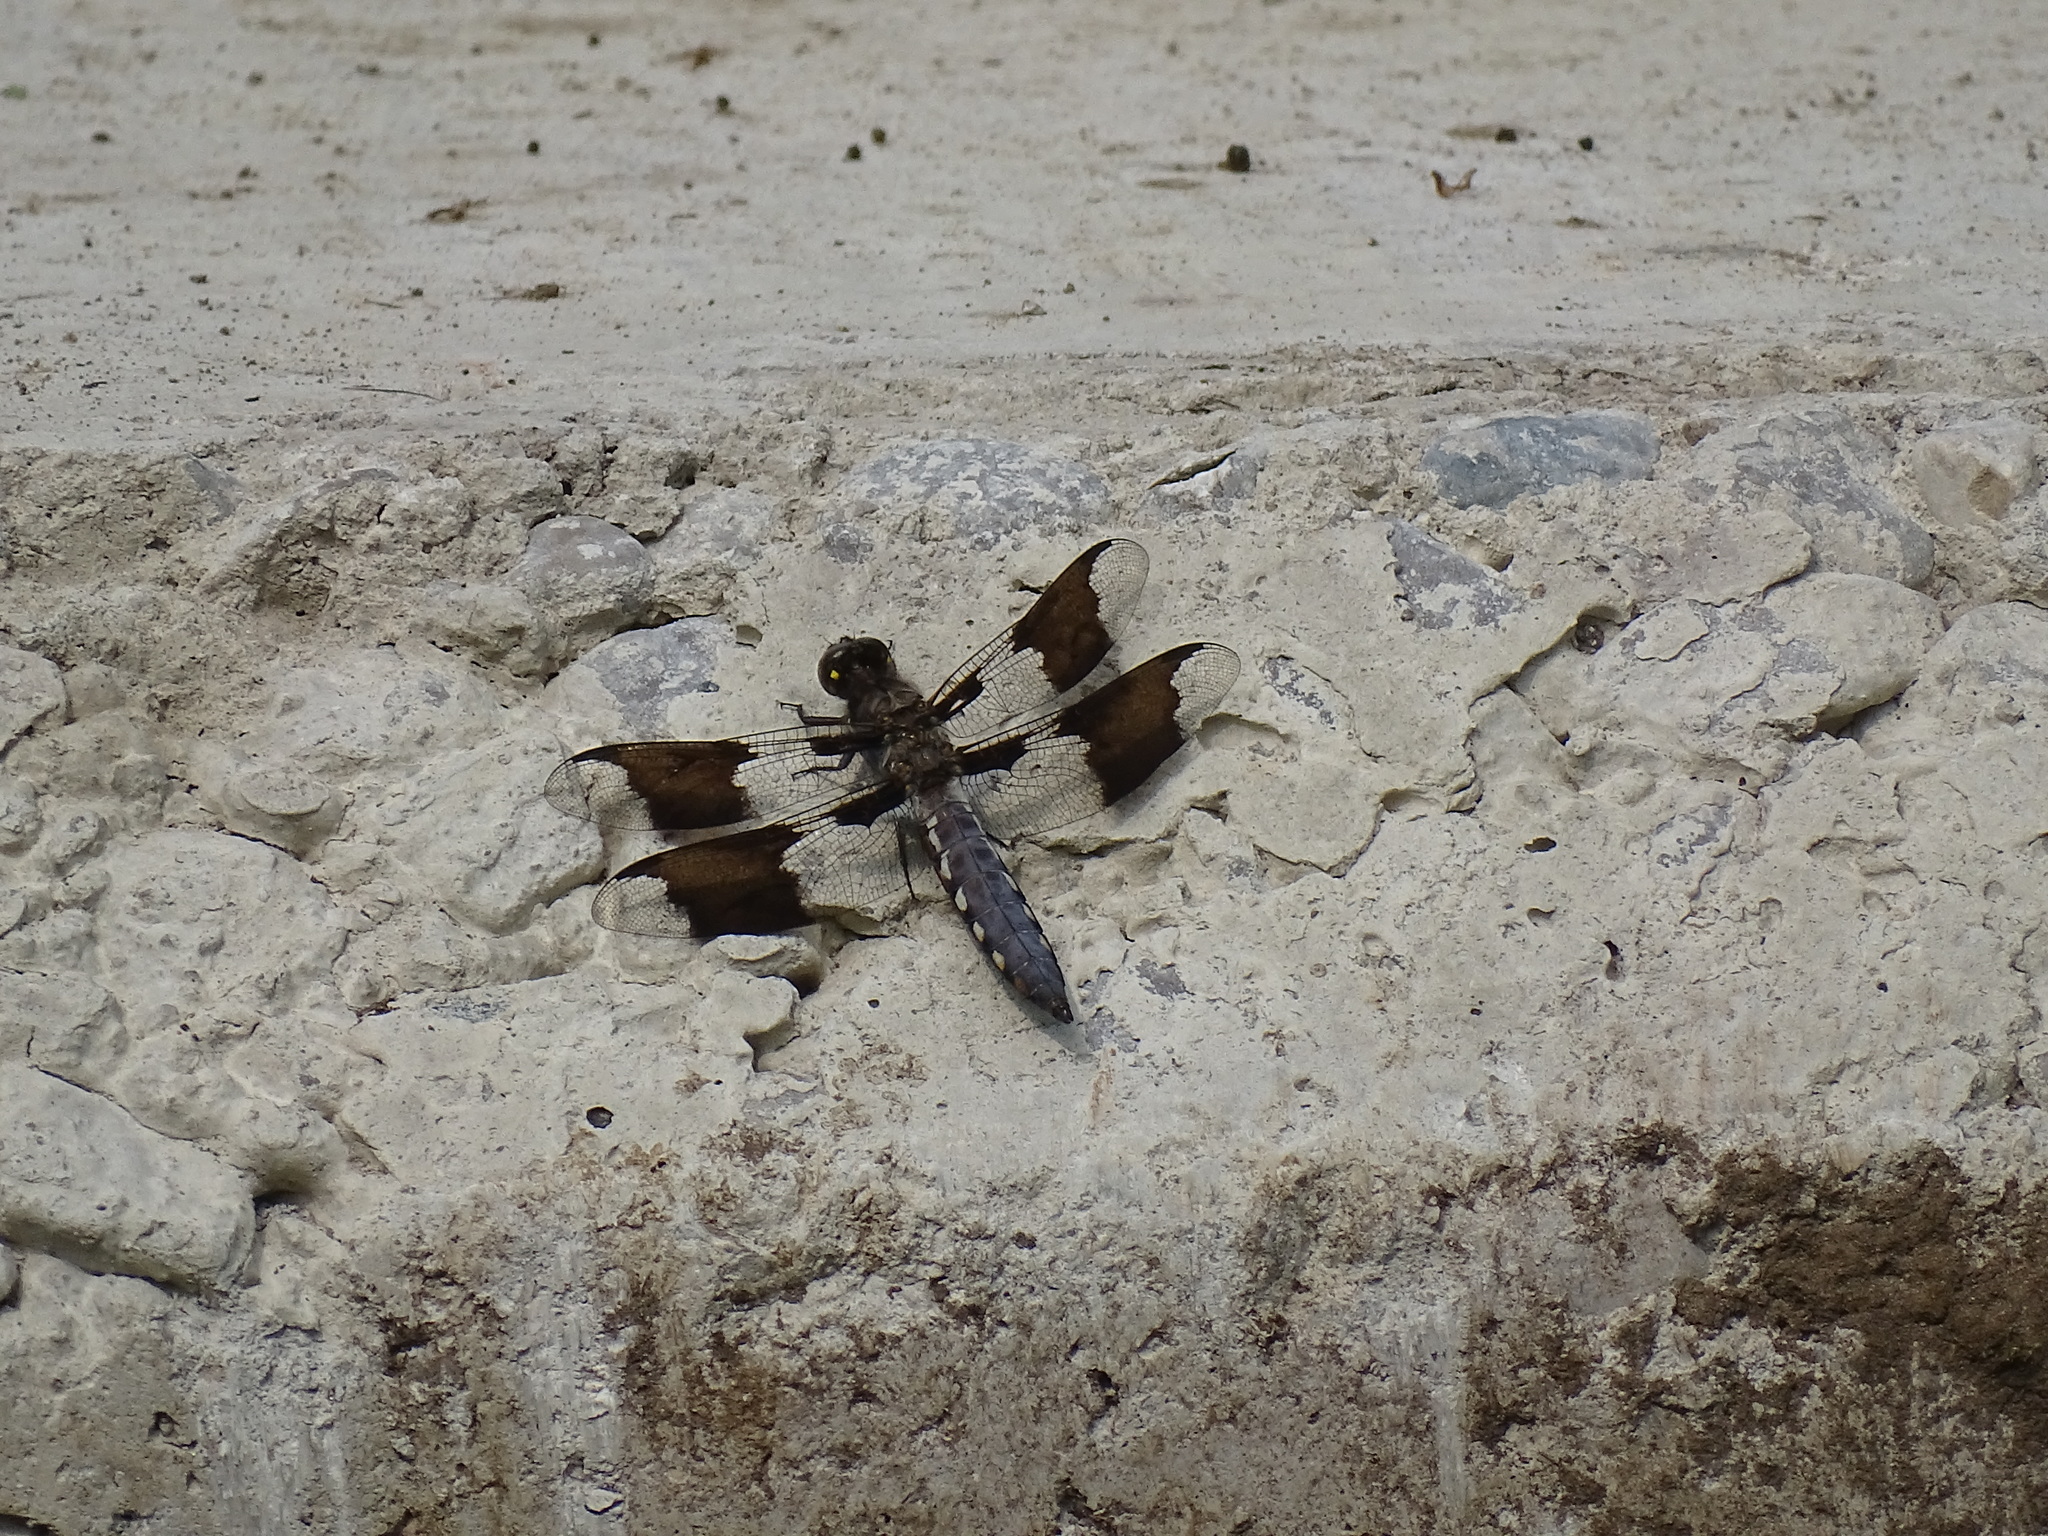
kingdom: Animalia
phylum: Arthropoda
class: Insecta
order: Odonata
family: Libellulidae
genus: Plathemis
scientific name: Plathemis lydia
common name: Common whitetail
